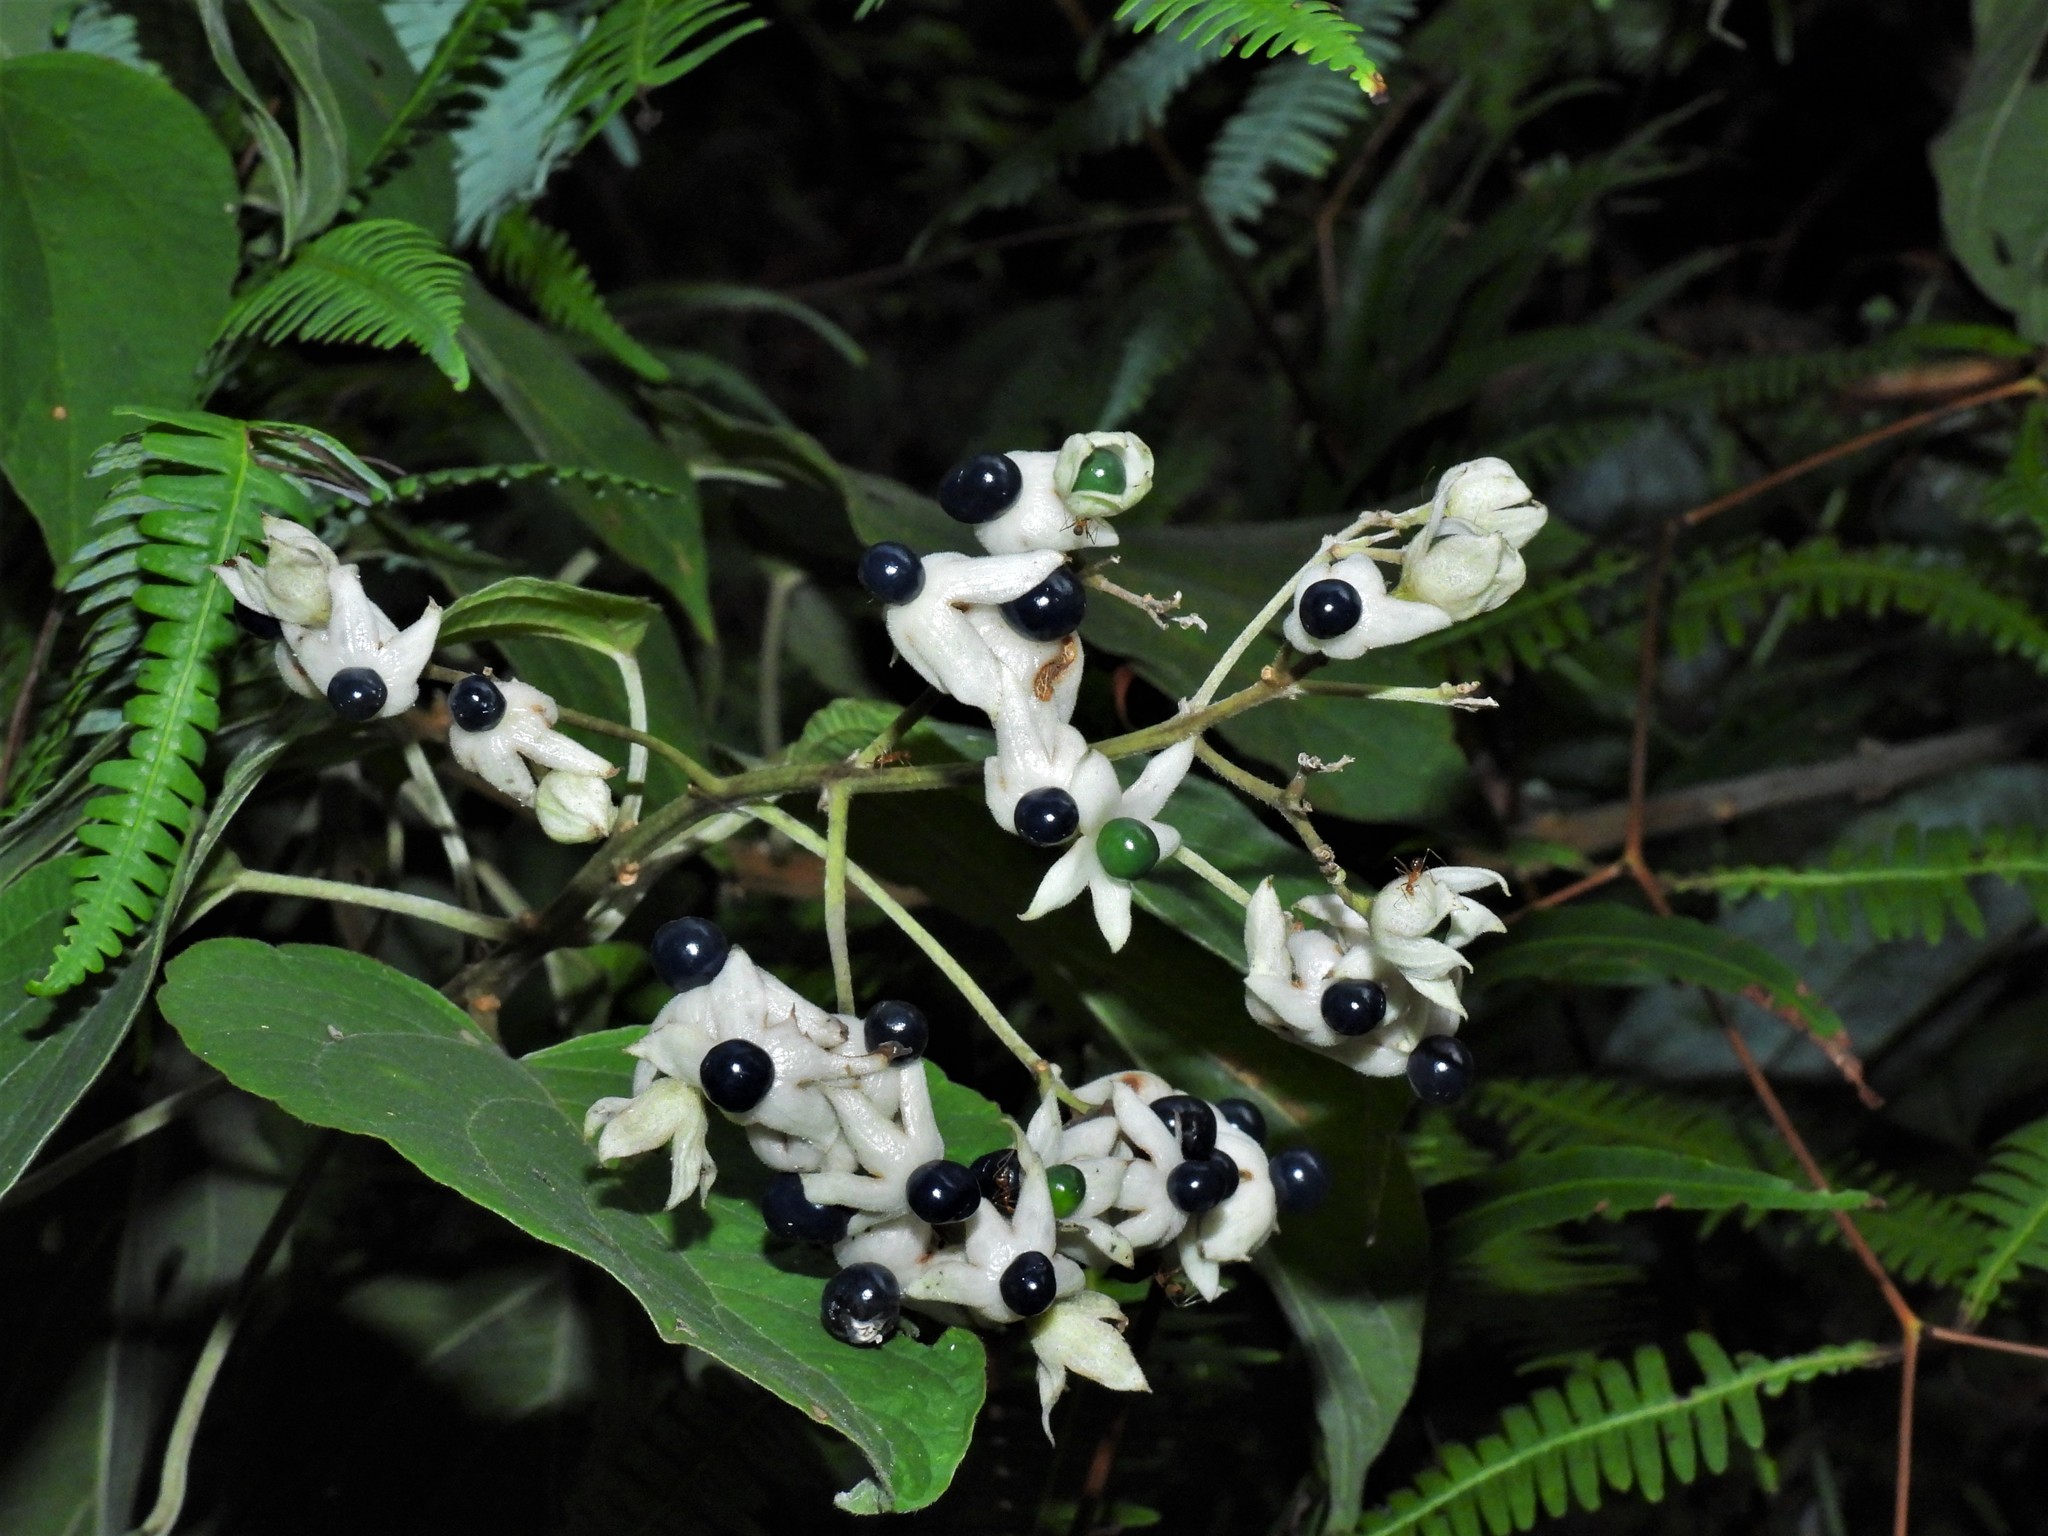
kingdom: Plantae
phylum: Tracheophyta
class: Magnoliopsida
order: Lamiales
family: Lamiaceae
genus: Clerodendrum
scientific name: Clerodendrum villosum
